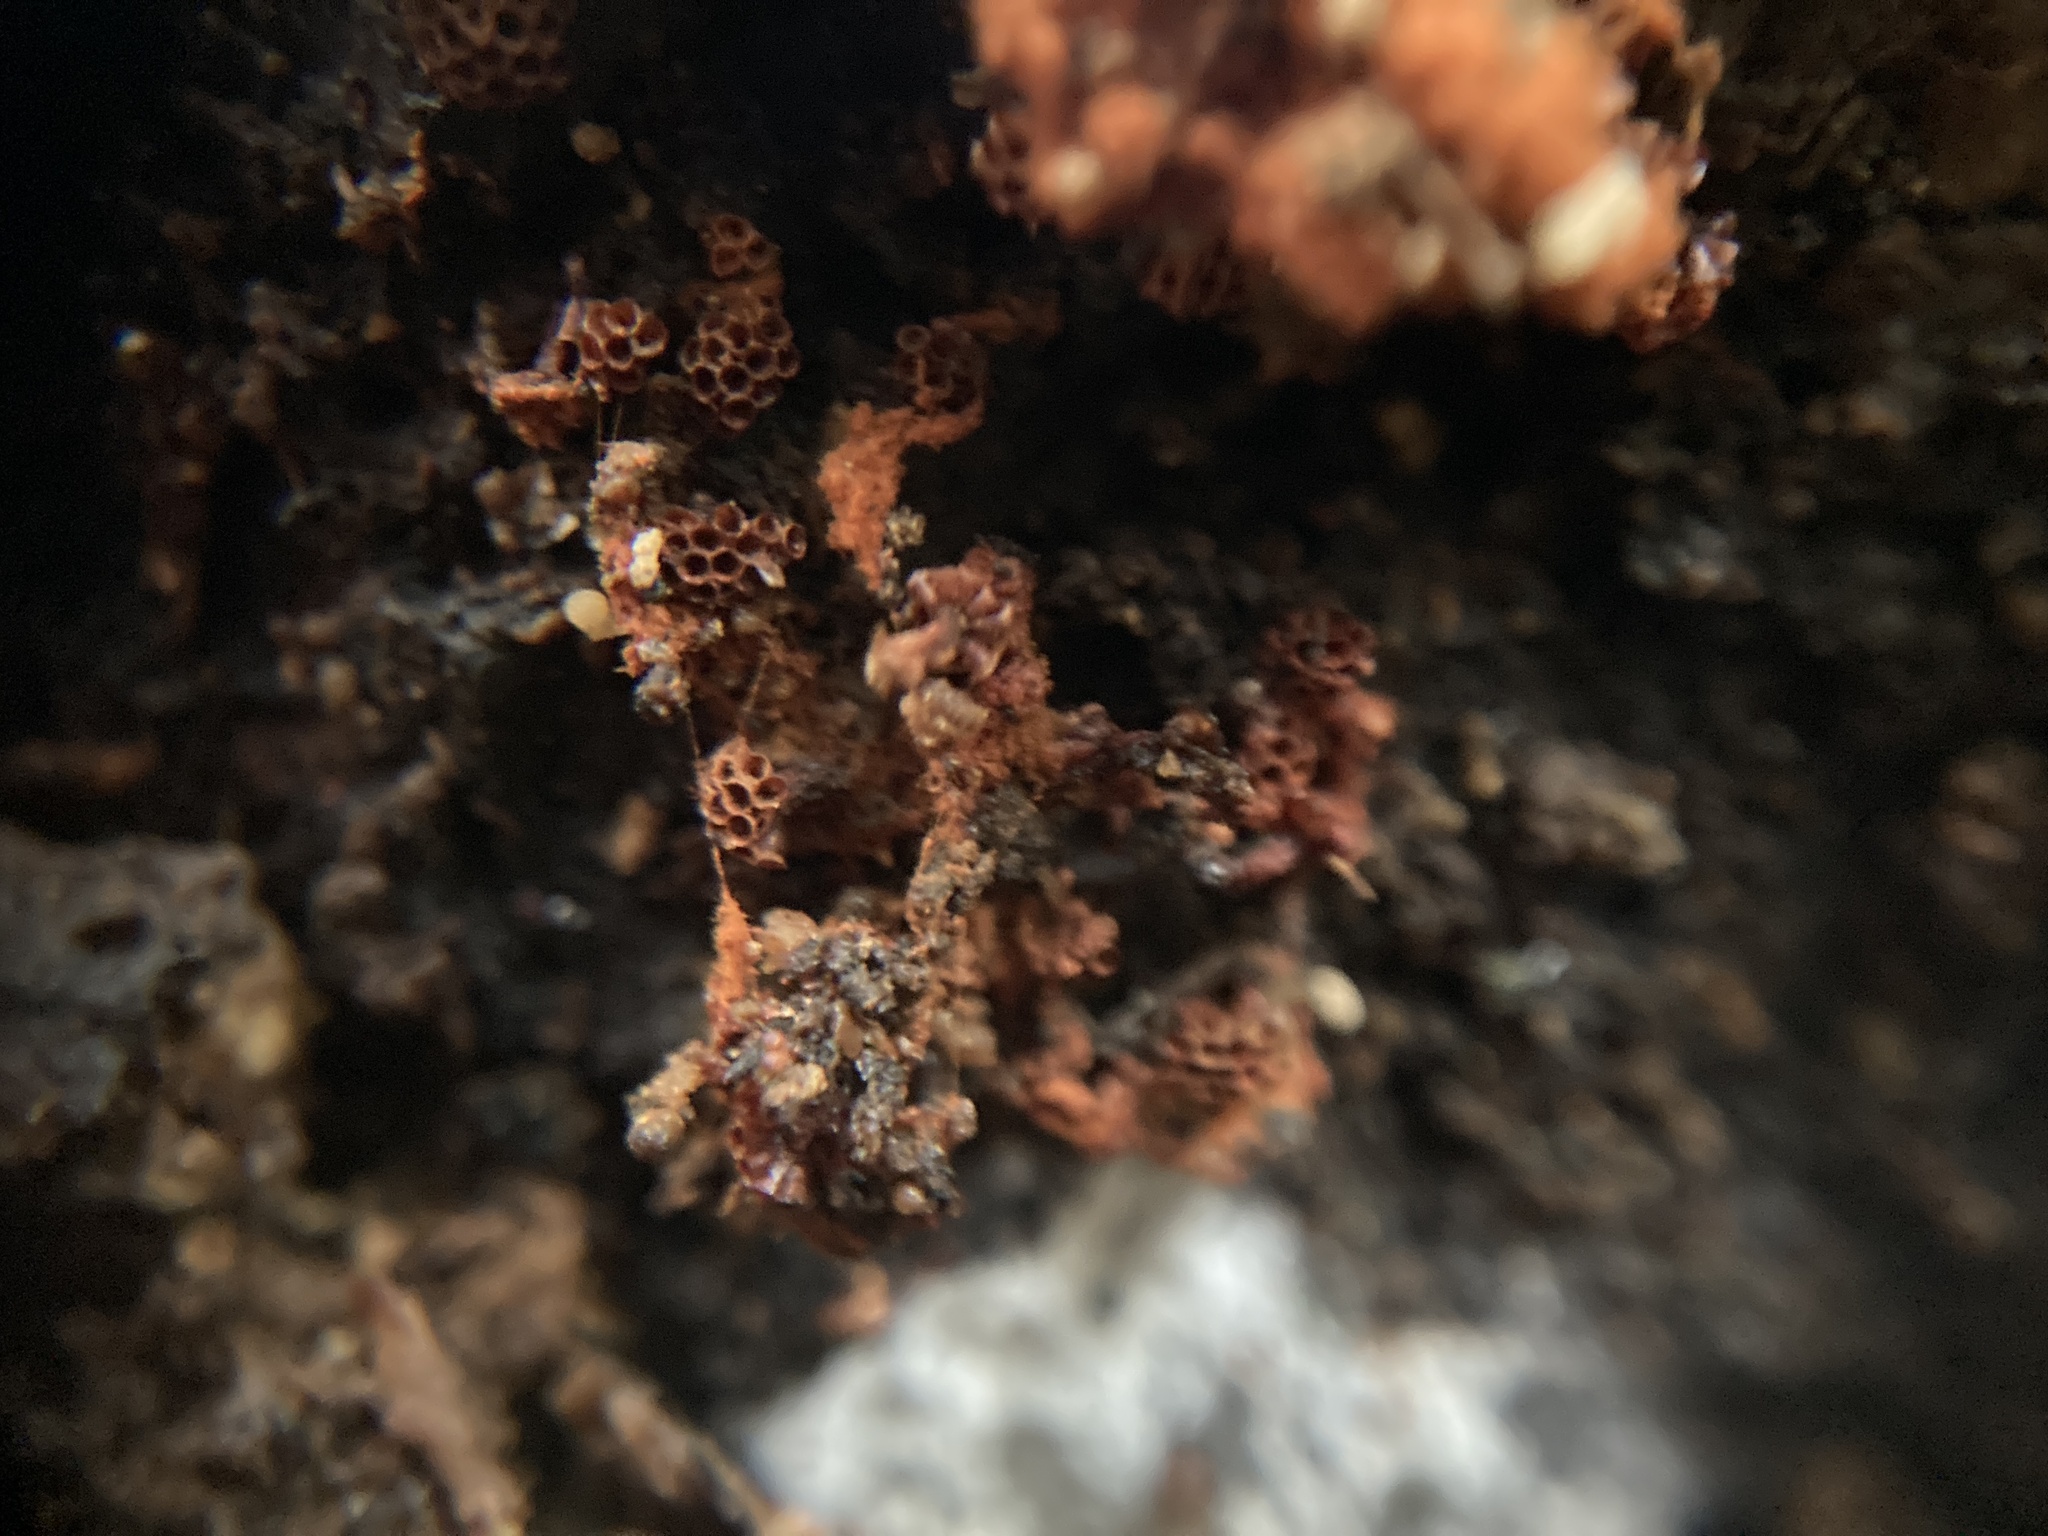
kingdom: Protozoa
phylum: Mycetozoa
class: Myxomycetes
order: Trichiales
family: Trichiaceae
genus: Metatrichia
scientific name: Metatrichia vesparia
